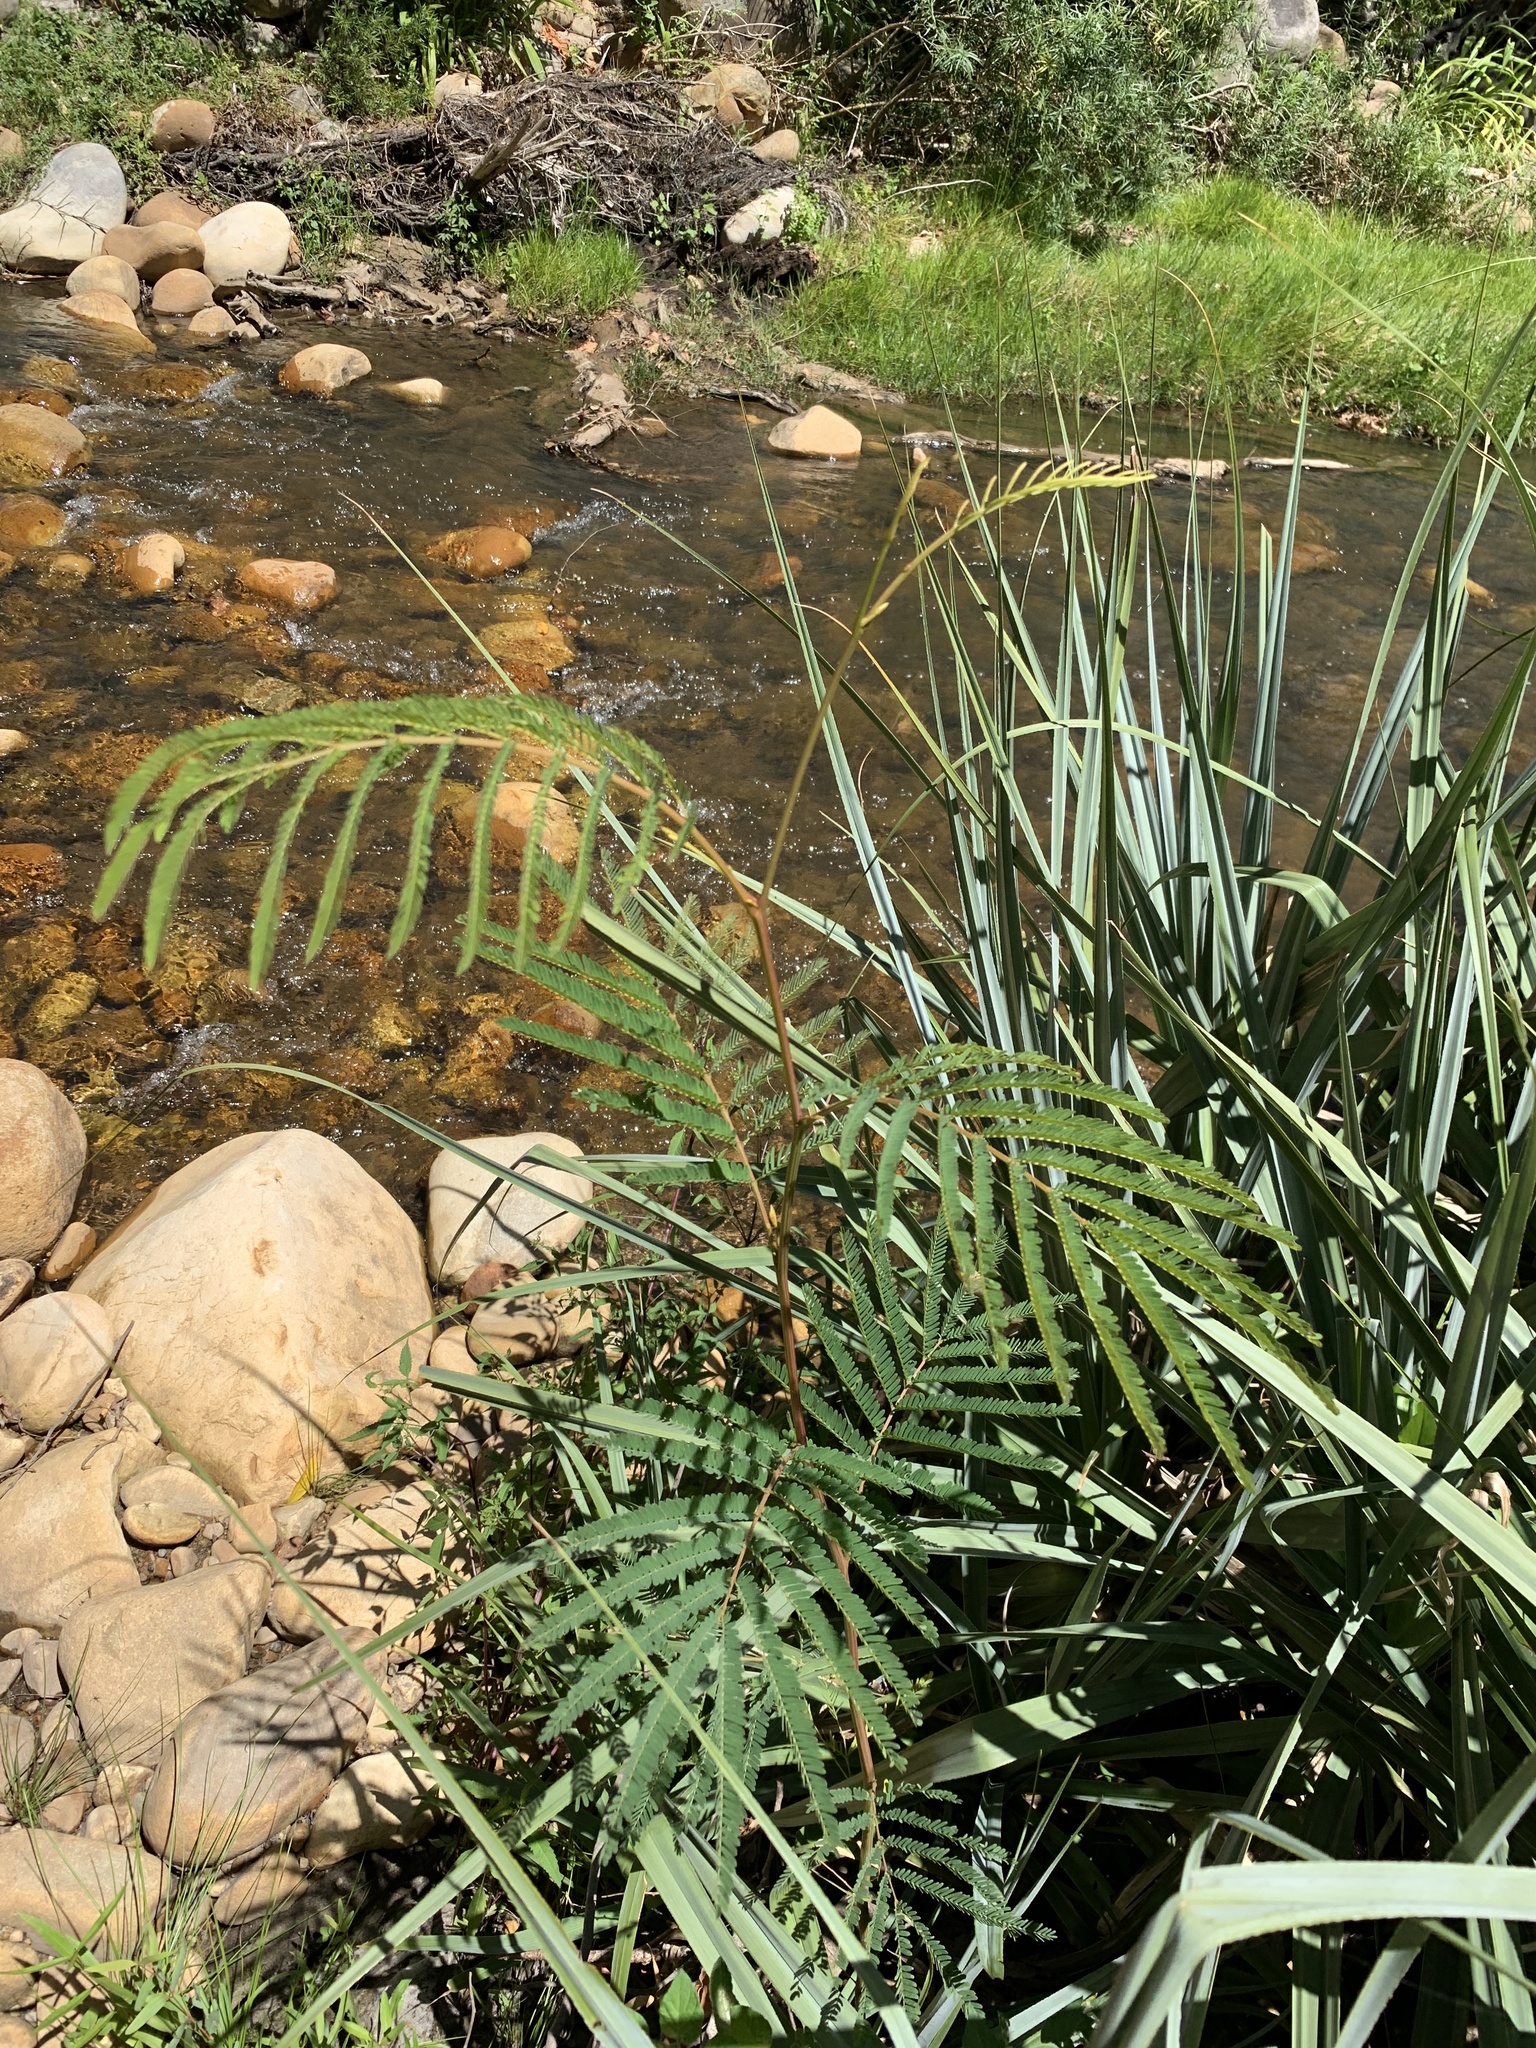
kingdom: Plantae
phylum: Tracheophyta
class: Magnoliopsida
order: Fabales
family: Fabaceae
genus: Paraserianthes
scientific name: Paraserianthes lophantha
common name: Plume albizia
